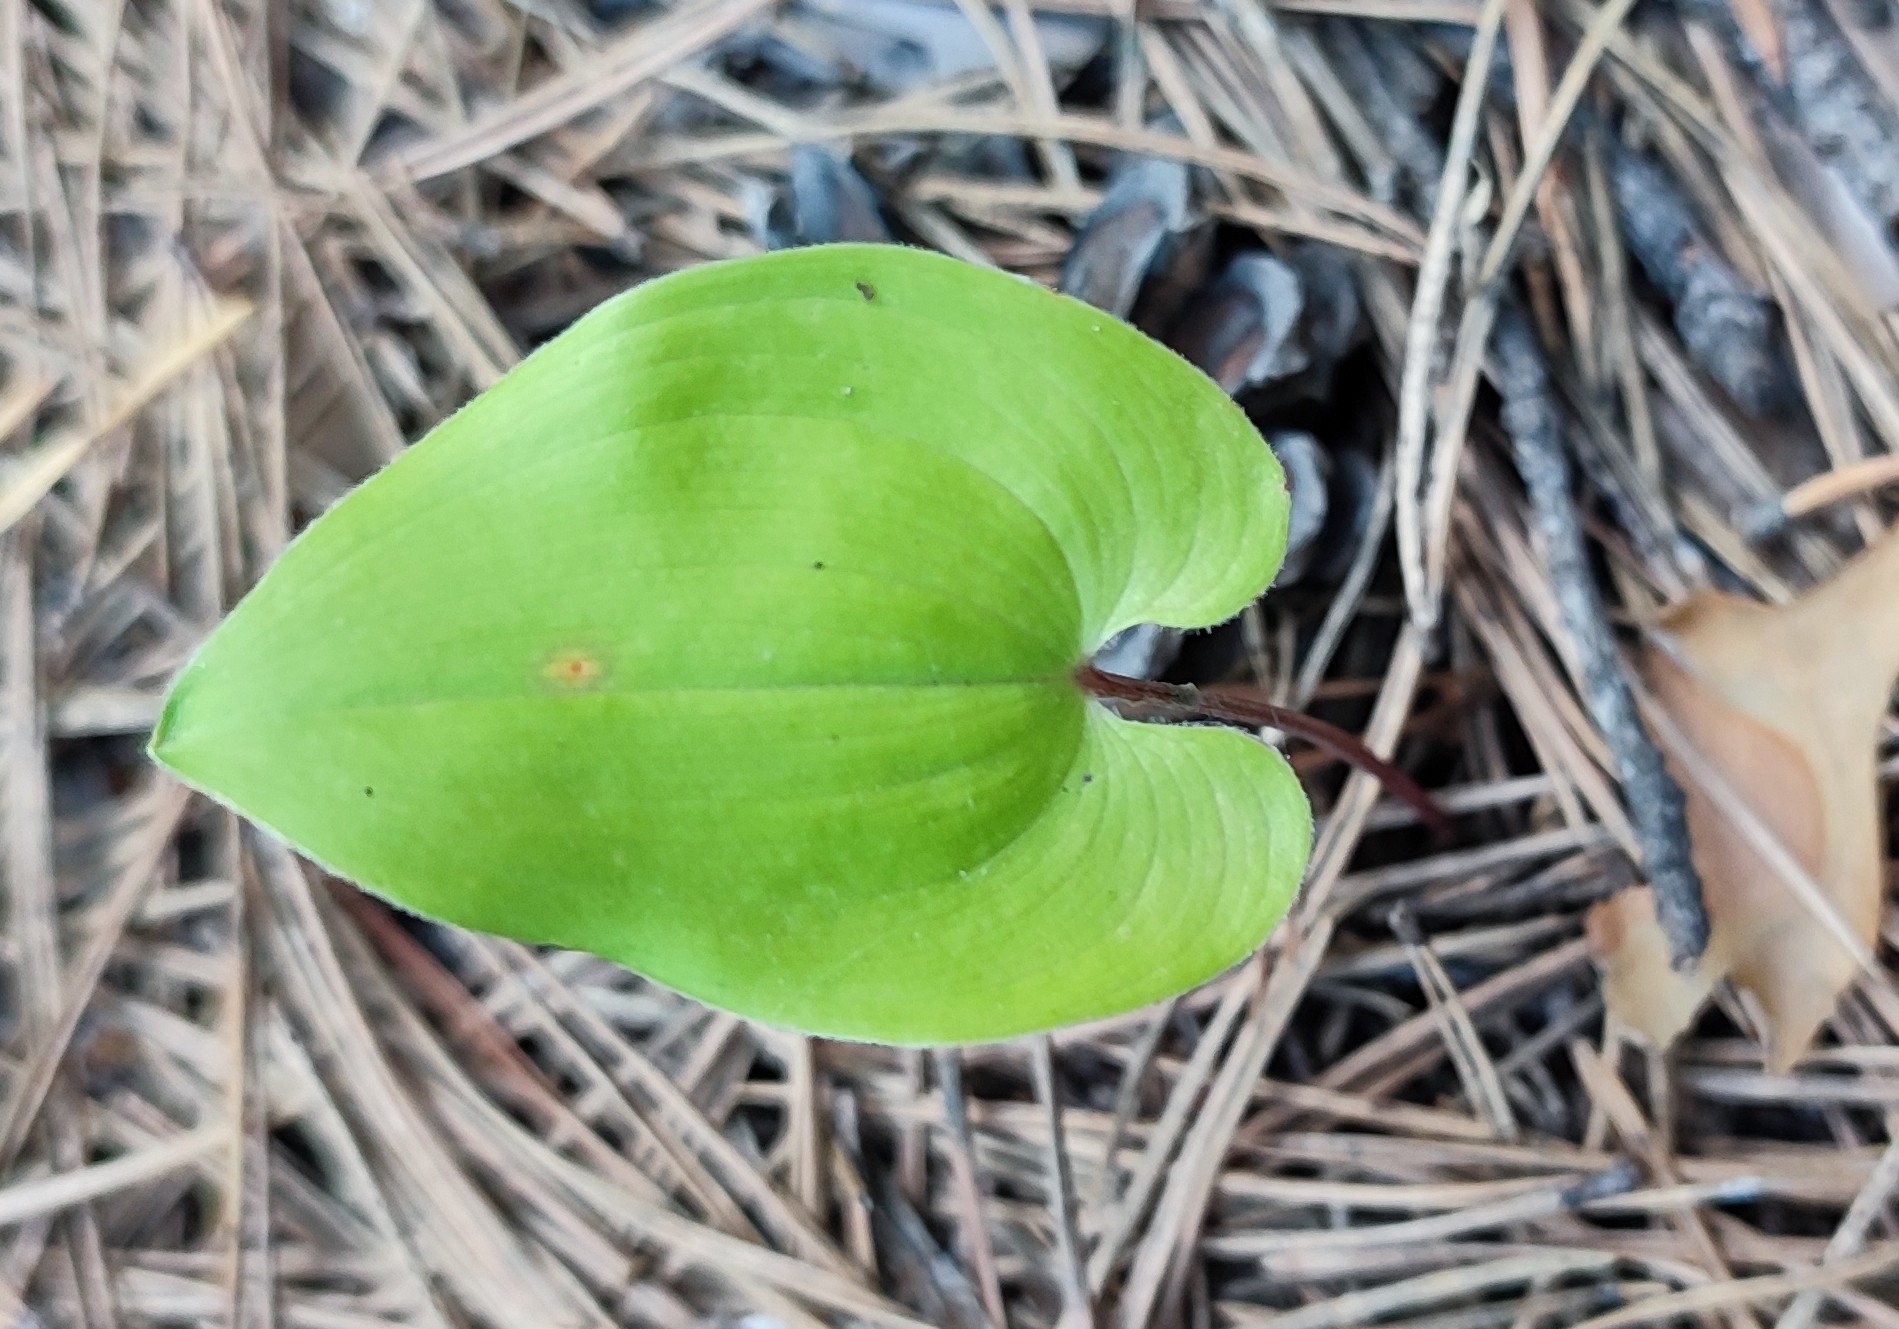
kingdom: Plantae
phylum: Tracheophyta
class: Liliopsida
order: Asparagales
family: Asparagaceae
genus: Maianthemum
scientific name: Maianthemum bifolium
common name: May lily
